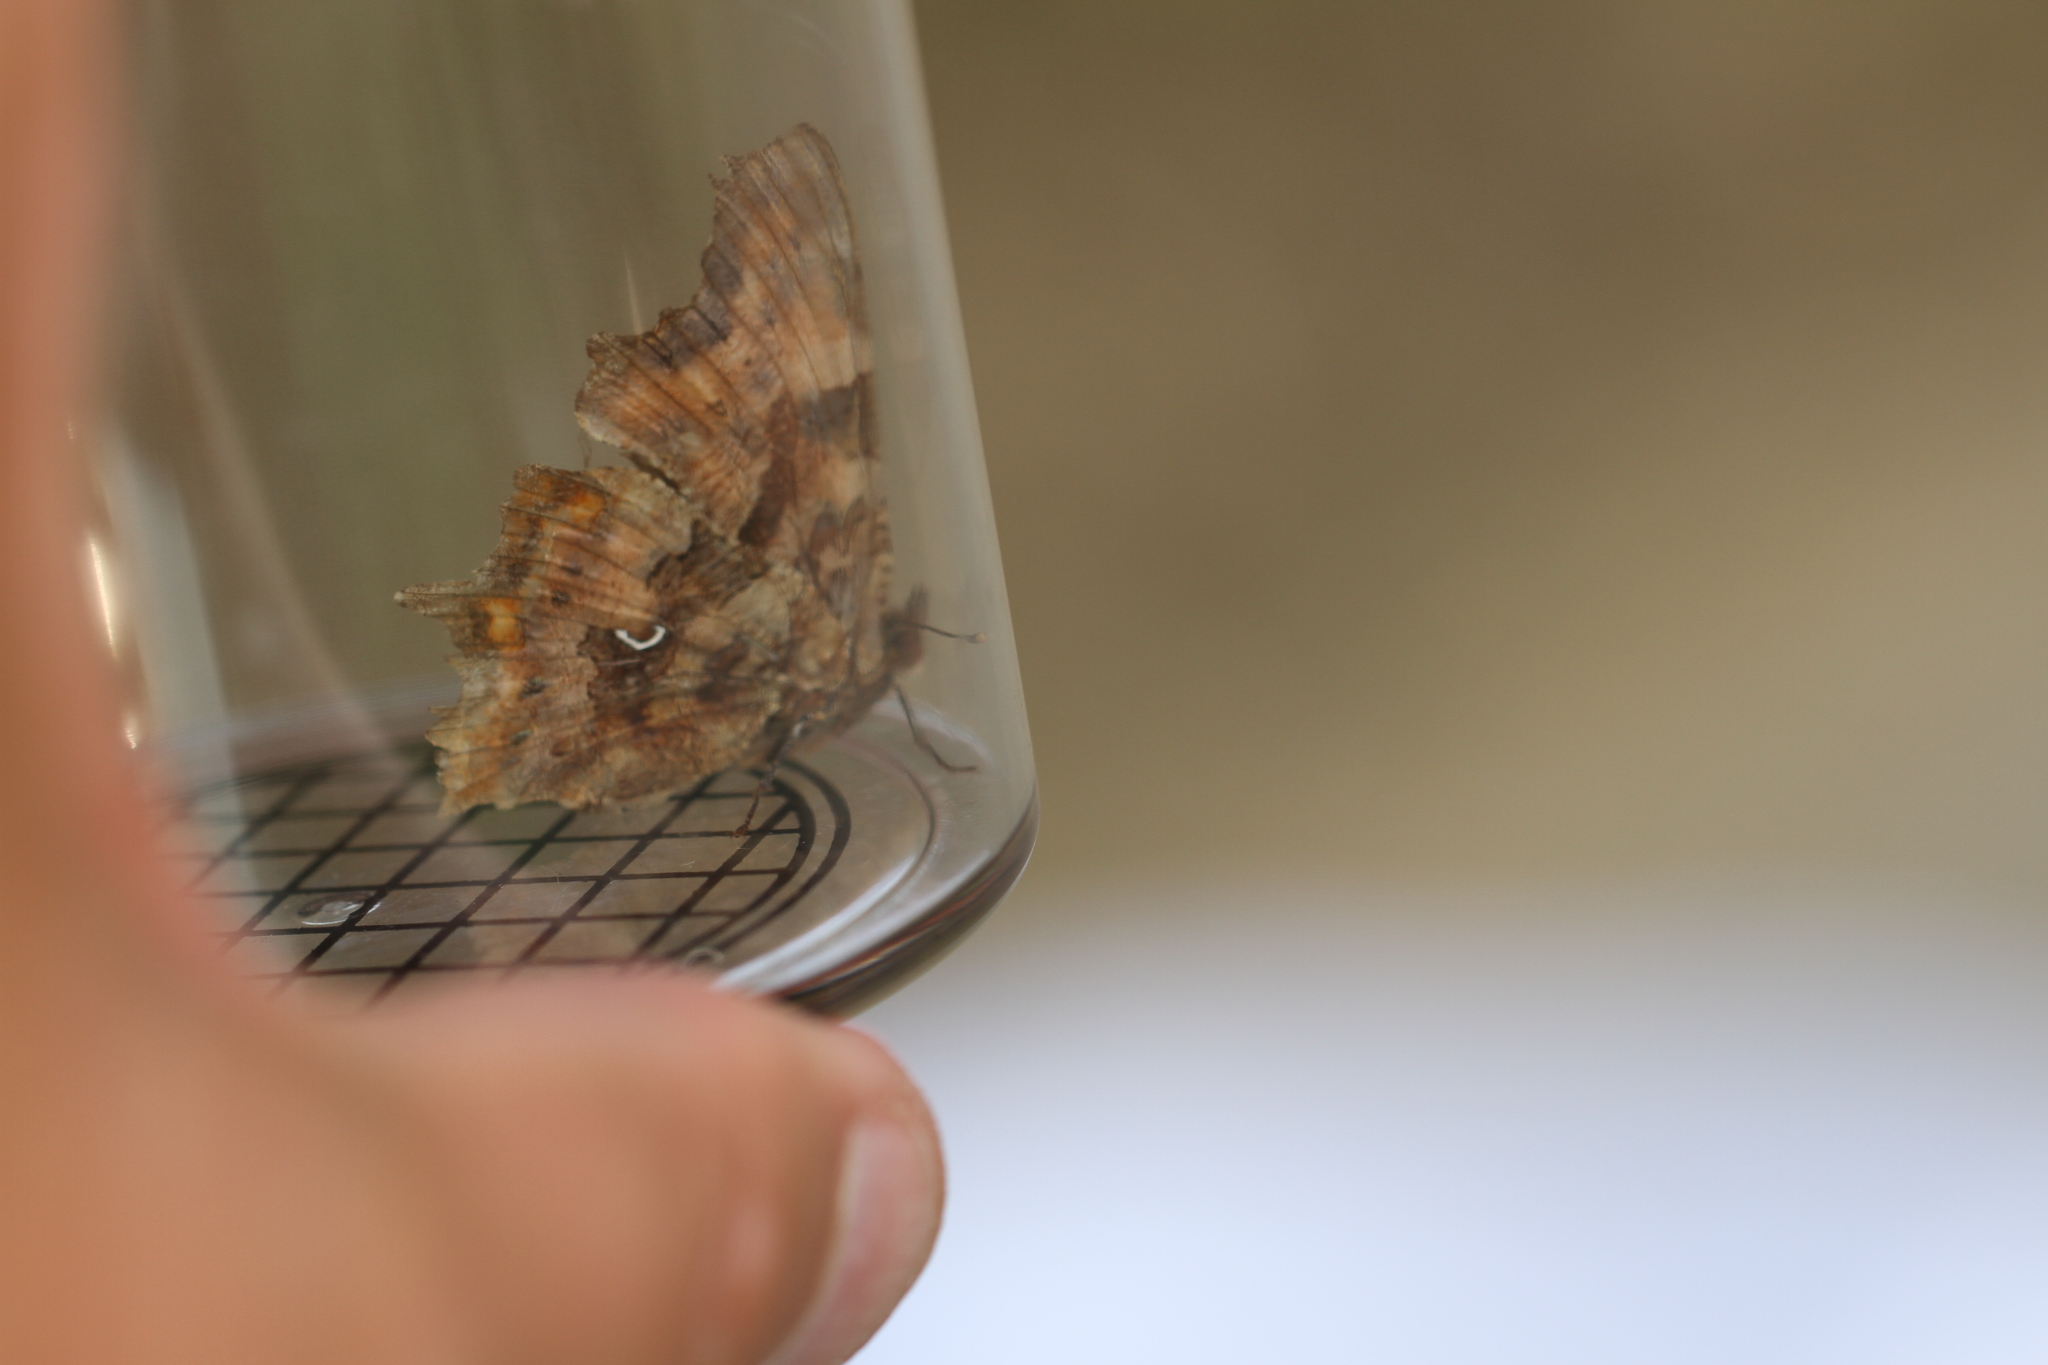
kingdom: Animalia
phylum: Arthropoda
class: Insecta
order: Lepidoptera
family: Nymphalidae
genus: Polygonia
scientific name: Polygonia c-album
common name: Comma
